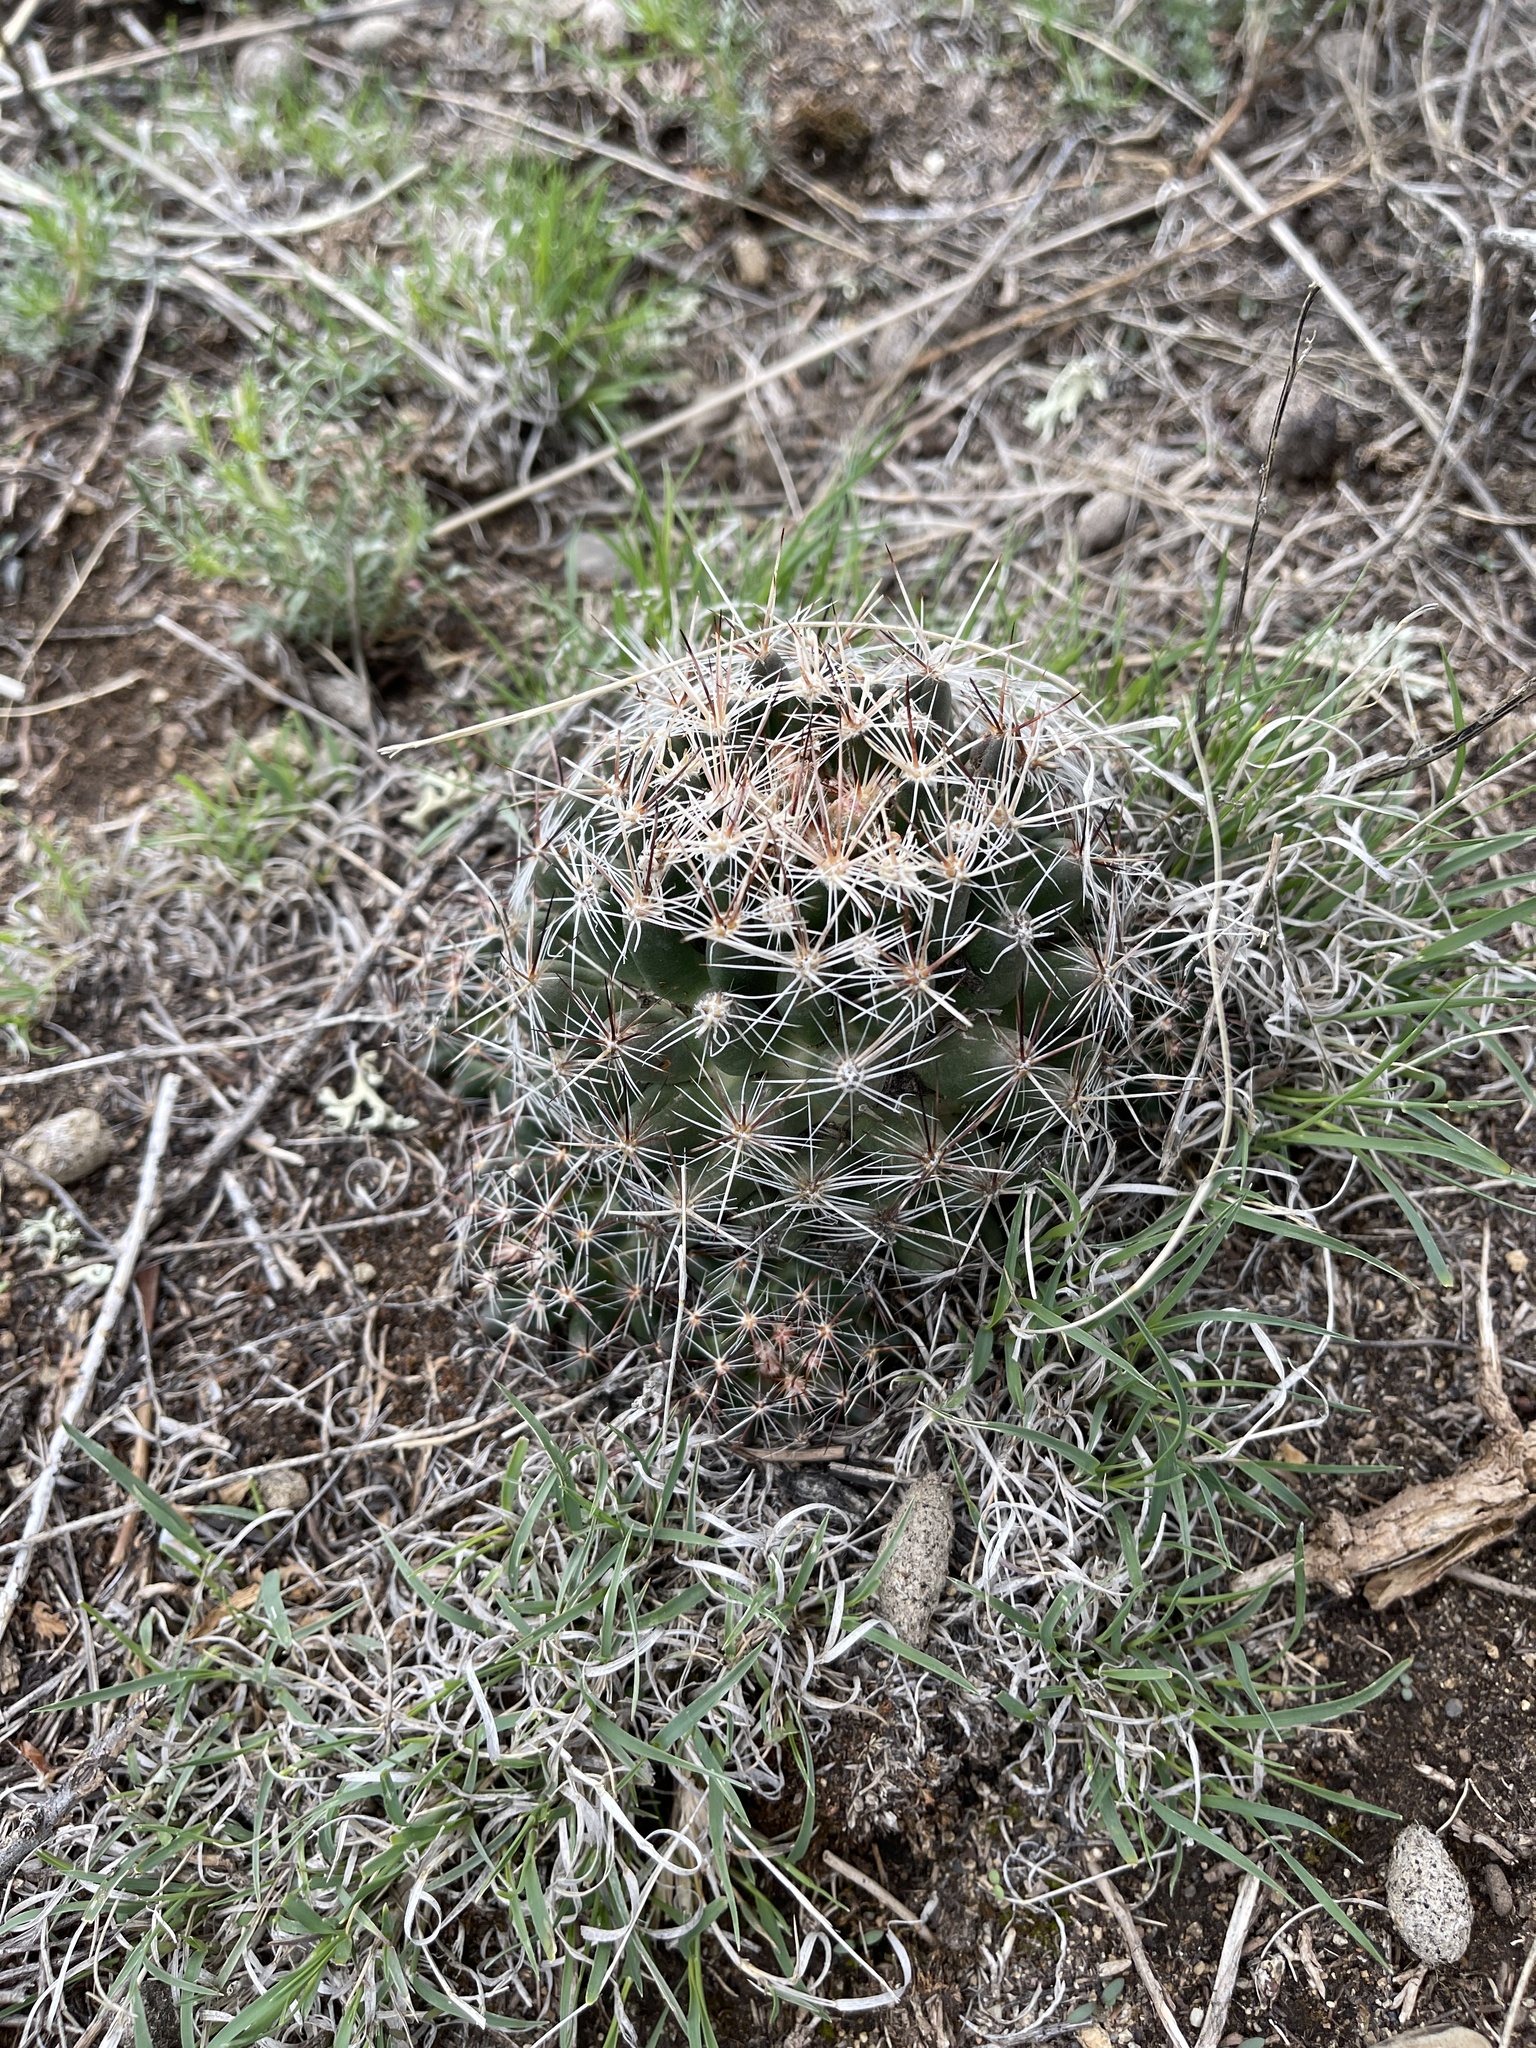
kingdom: Plantae
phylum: Tracheophyta
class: Magnoliopsida
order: Caryophyllales
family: Cactaceae
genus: Pelecyphora
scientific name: Pelecyphora vivipara
